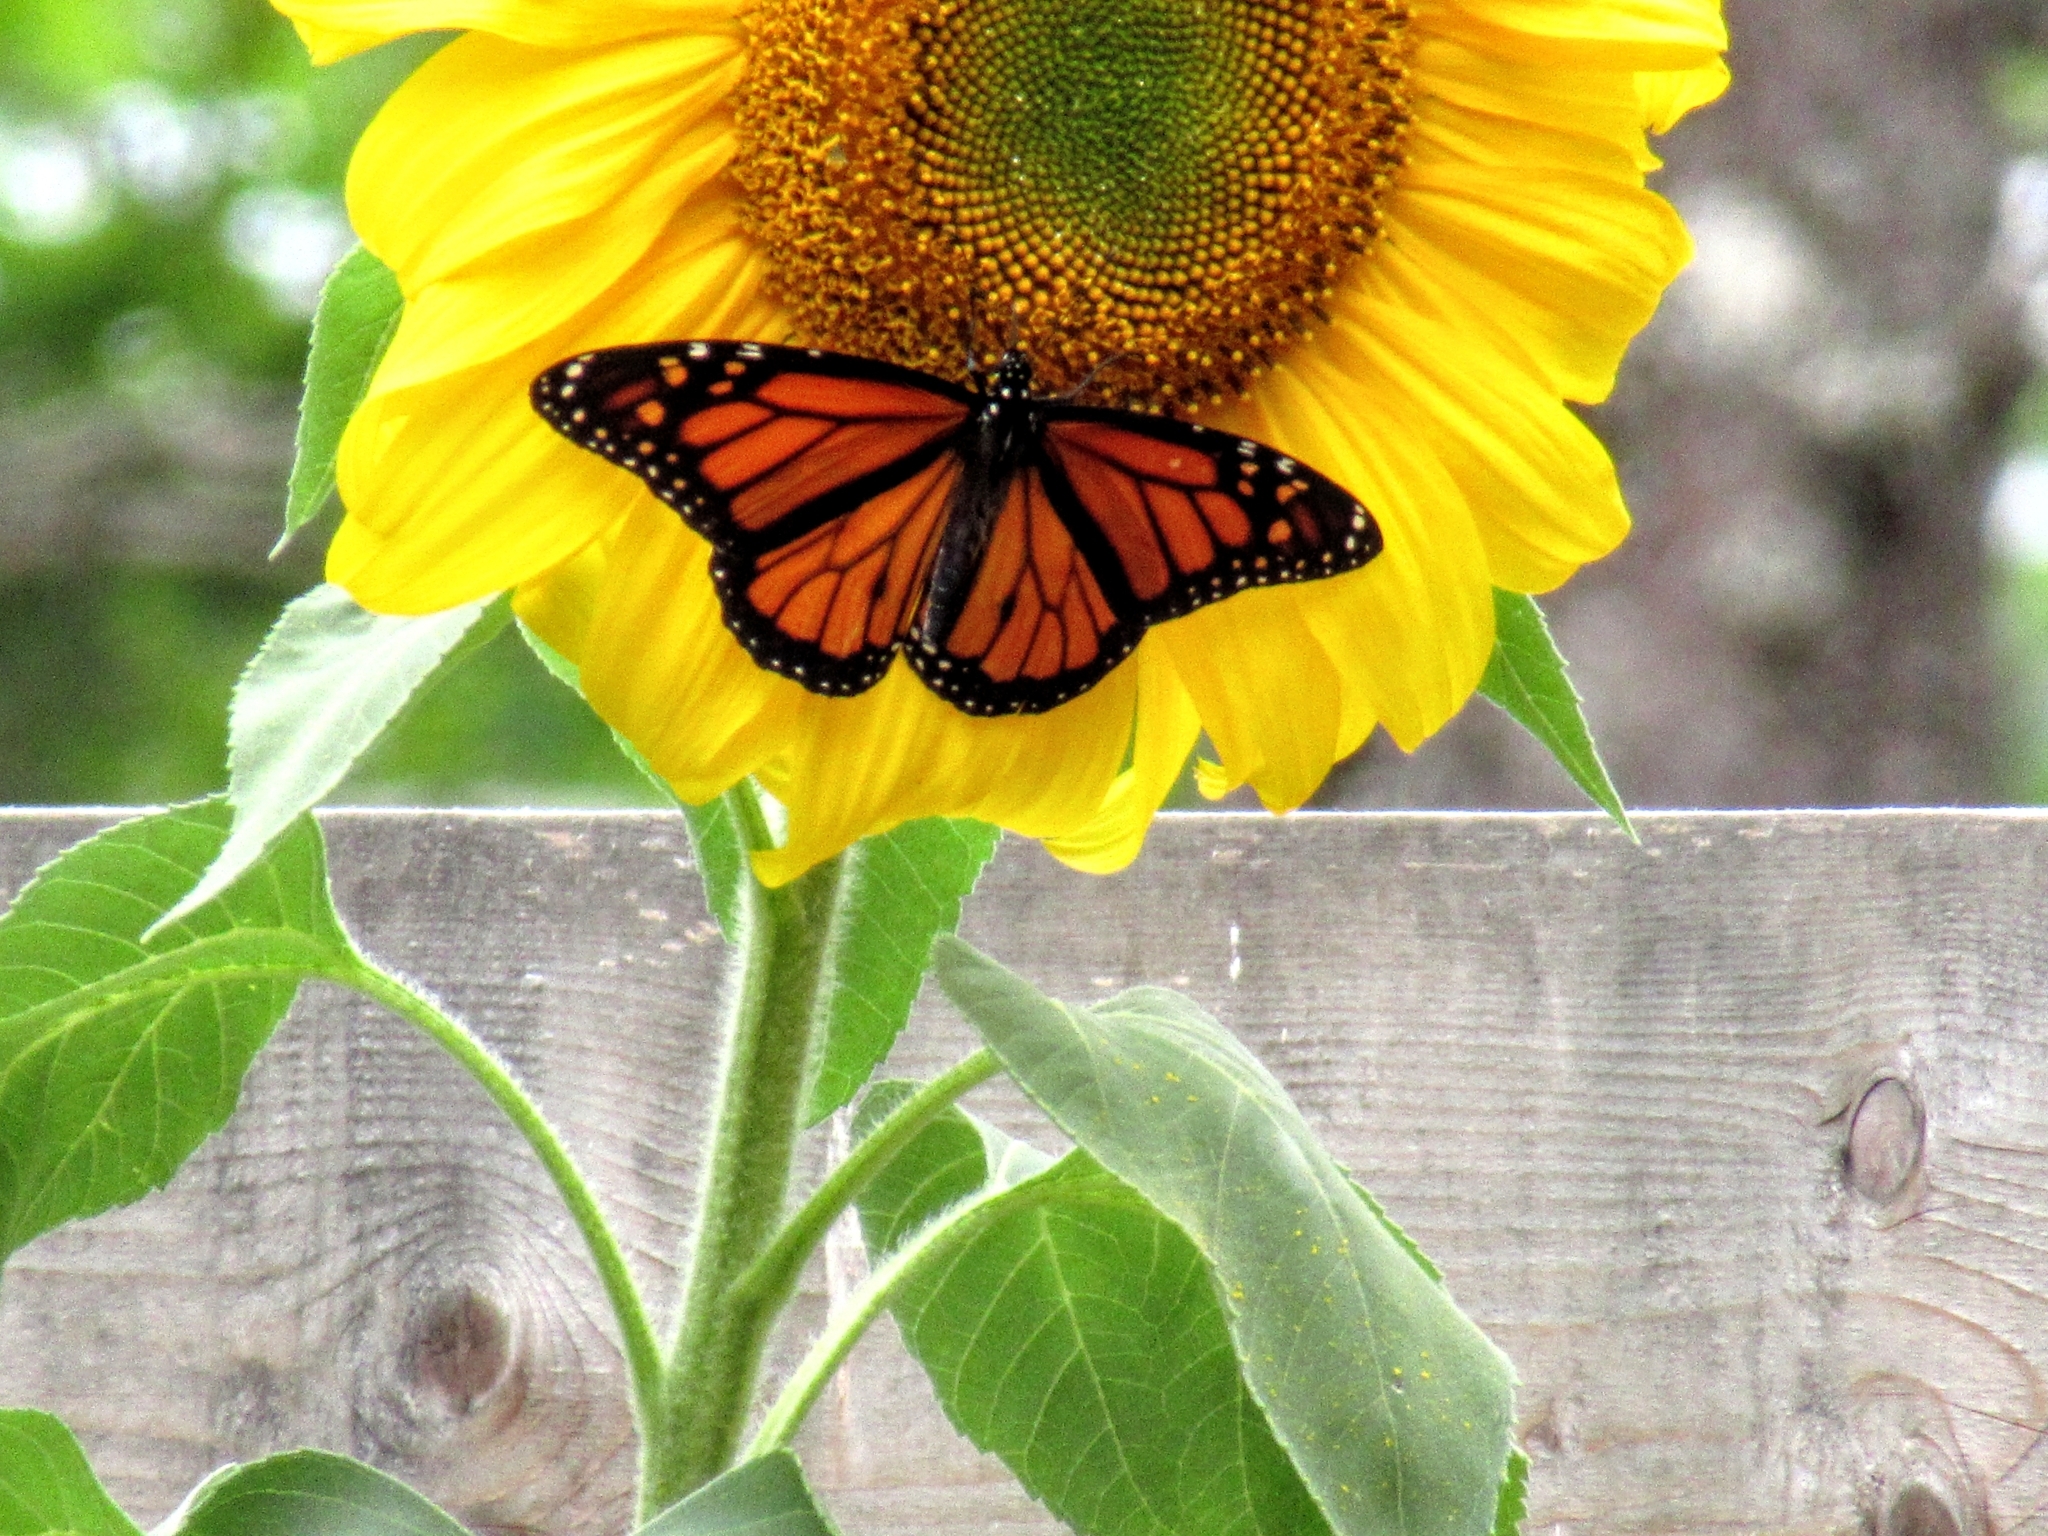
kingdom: Animalia
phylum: Arthropoda
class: Insecta
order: Lepidoptera
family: Nymphalidae
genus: Danaus
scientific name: Danaus plexippus
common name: Monarch
